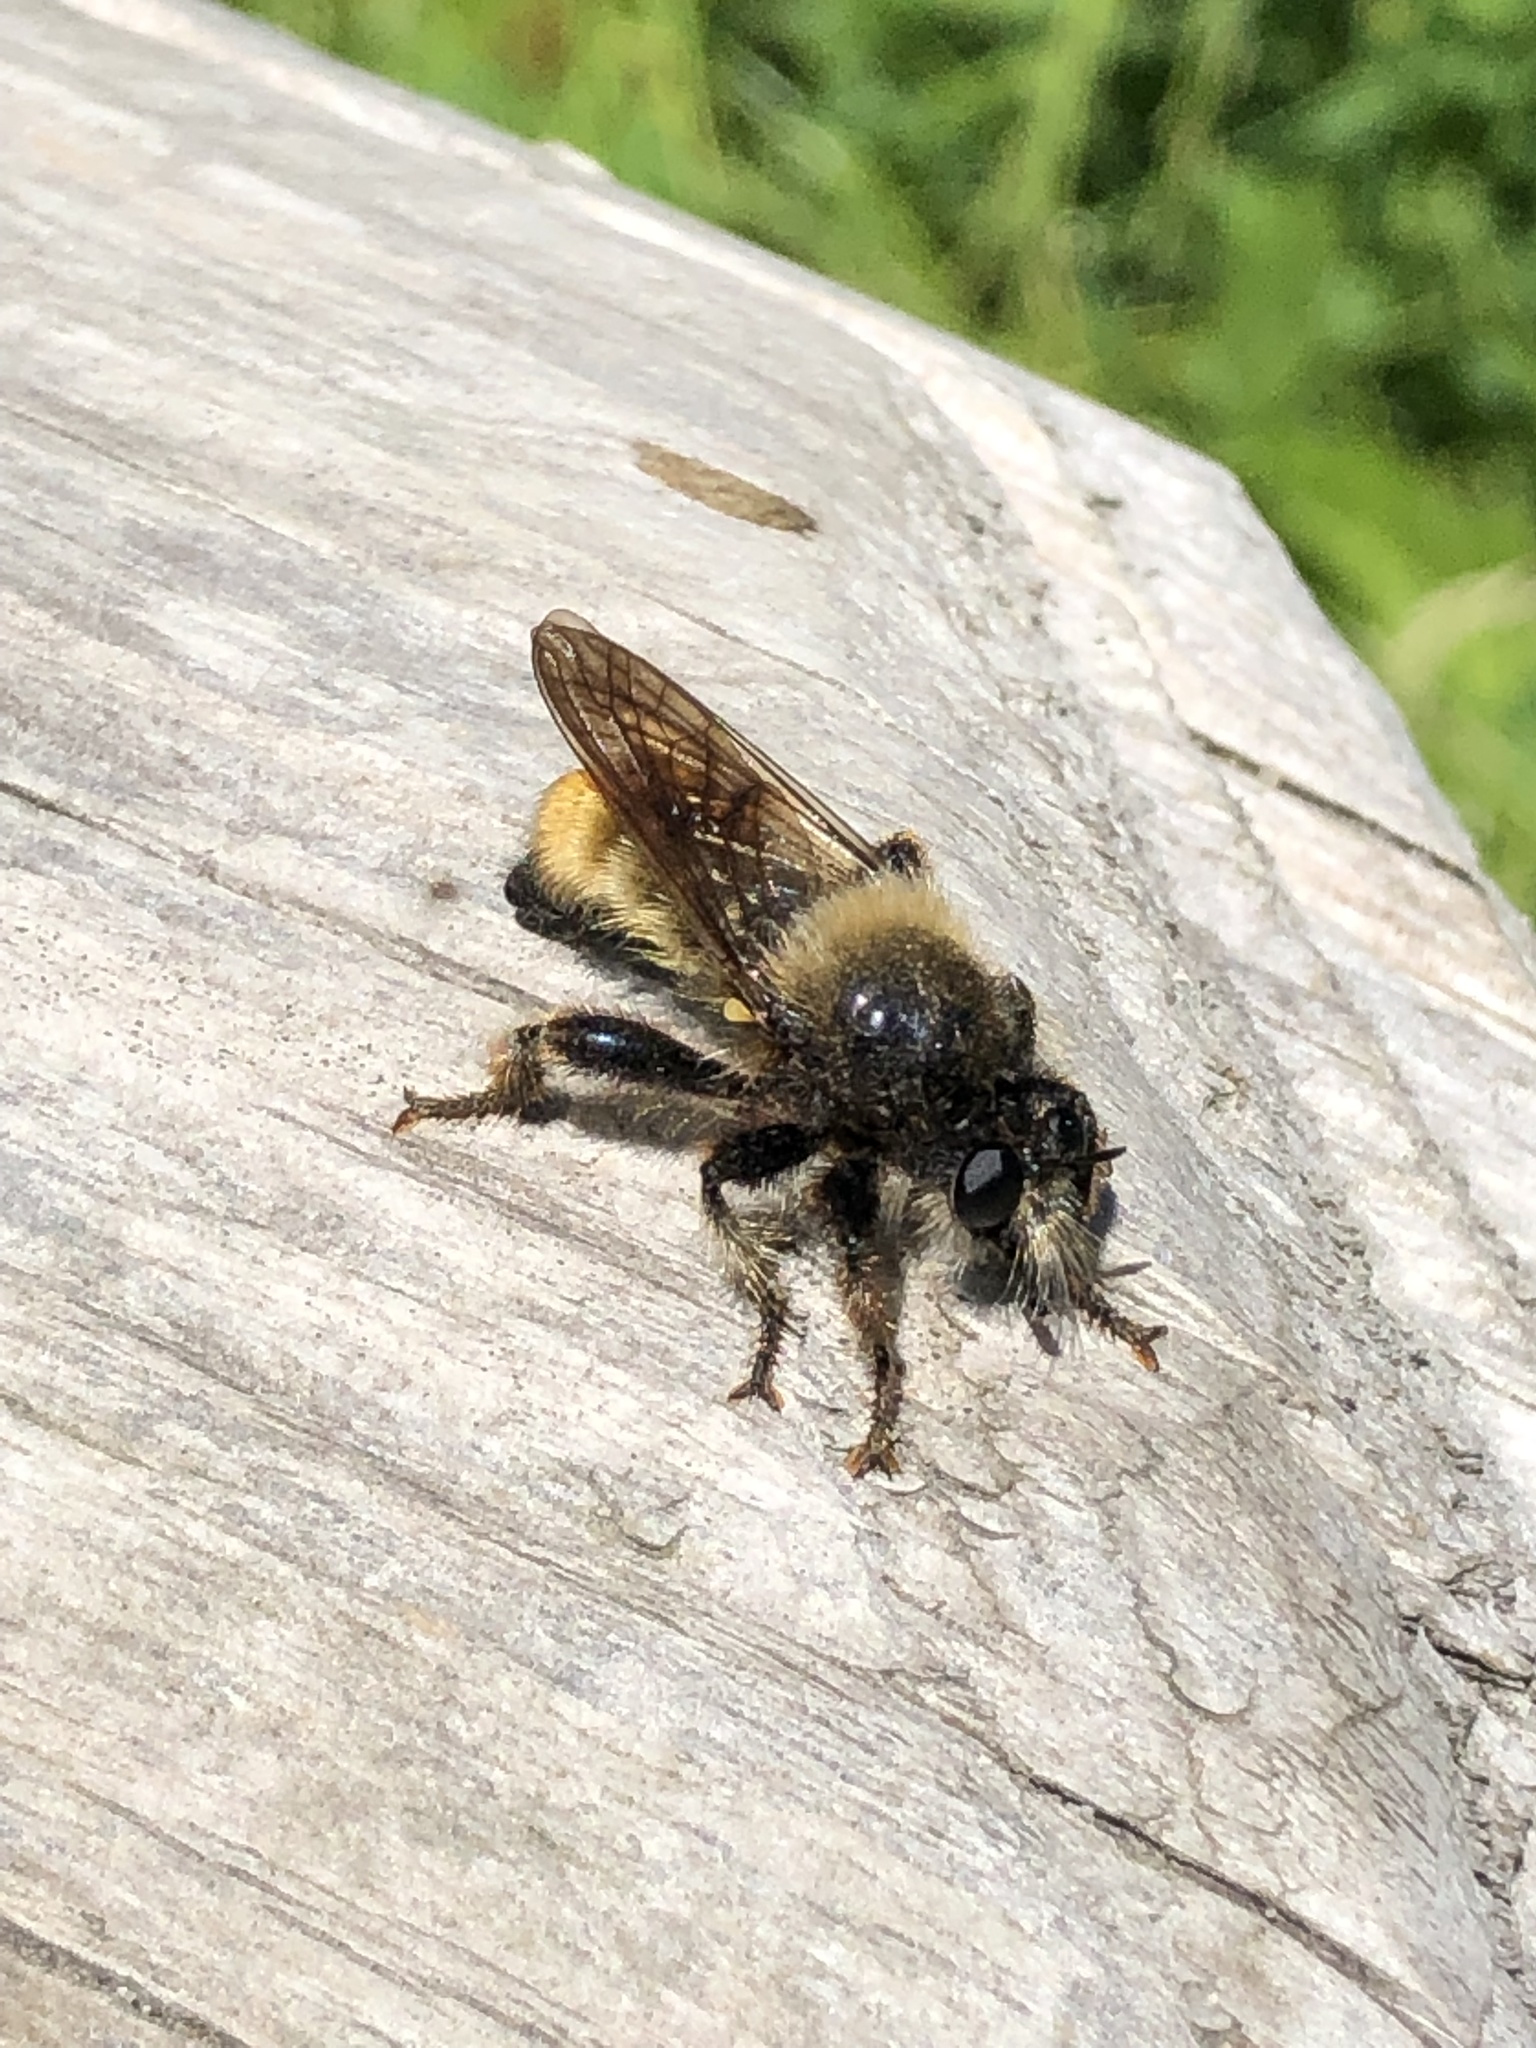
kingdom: Animalia
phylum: Arthropoda
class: Insecta
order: Diptera
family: Asilidae
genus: Laphria
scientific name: Laphria flava
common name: Bumblebee robberfly
